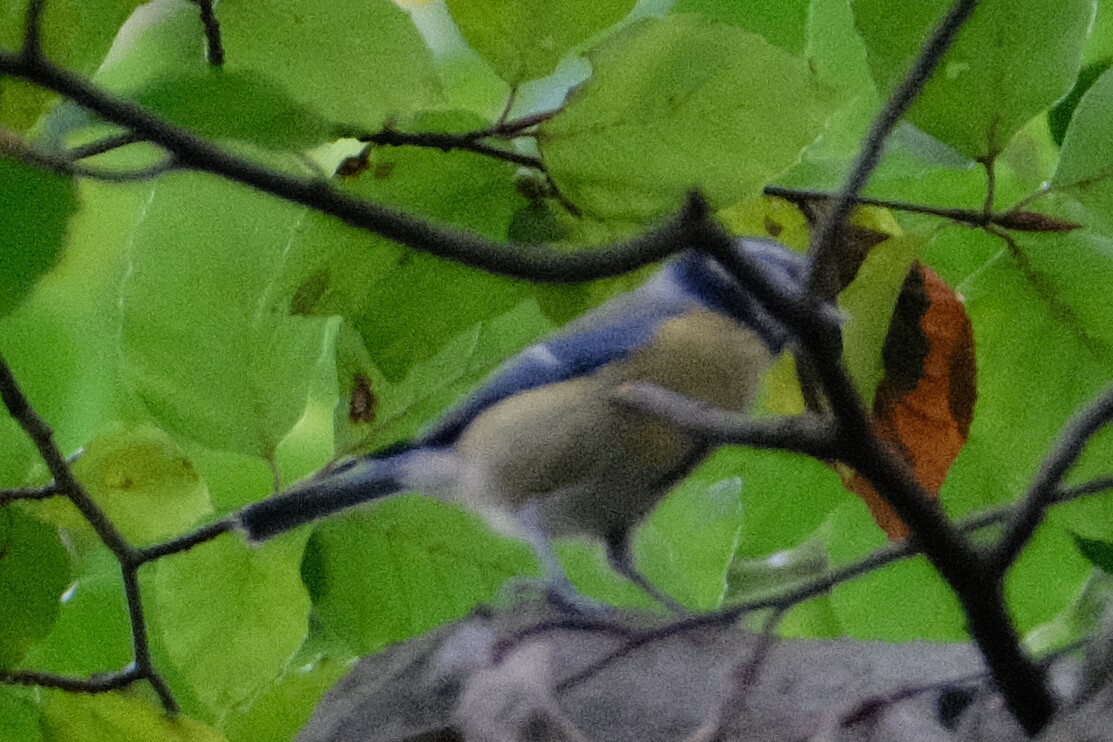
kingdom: Animalia
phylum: Chordata
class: Aves
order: Passeriformes
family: Paridae
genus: Cyanistes
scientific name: Cyanistes caeruleus
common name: Eurasian blue tit
